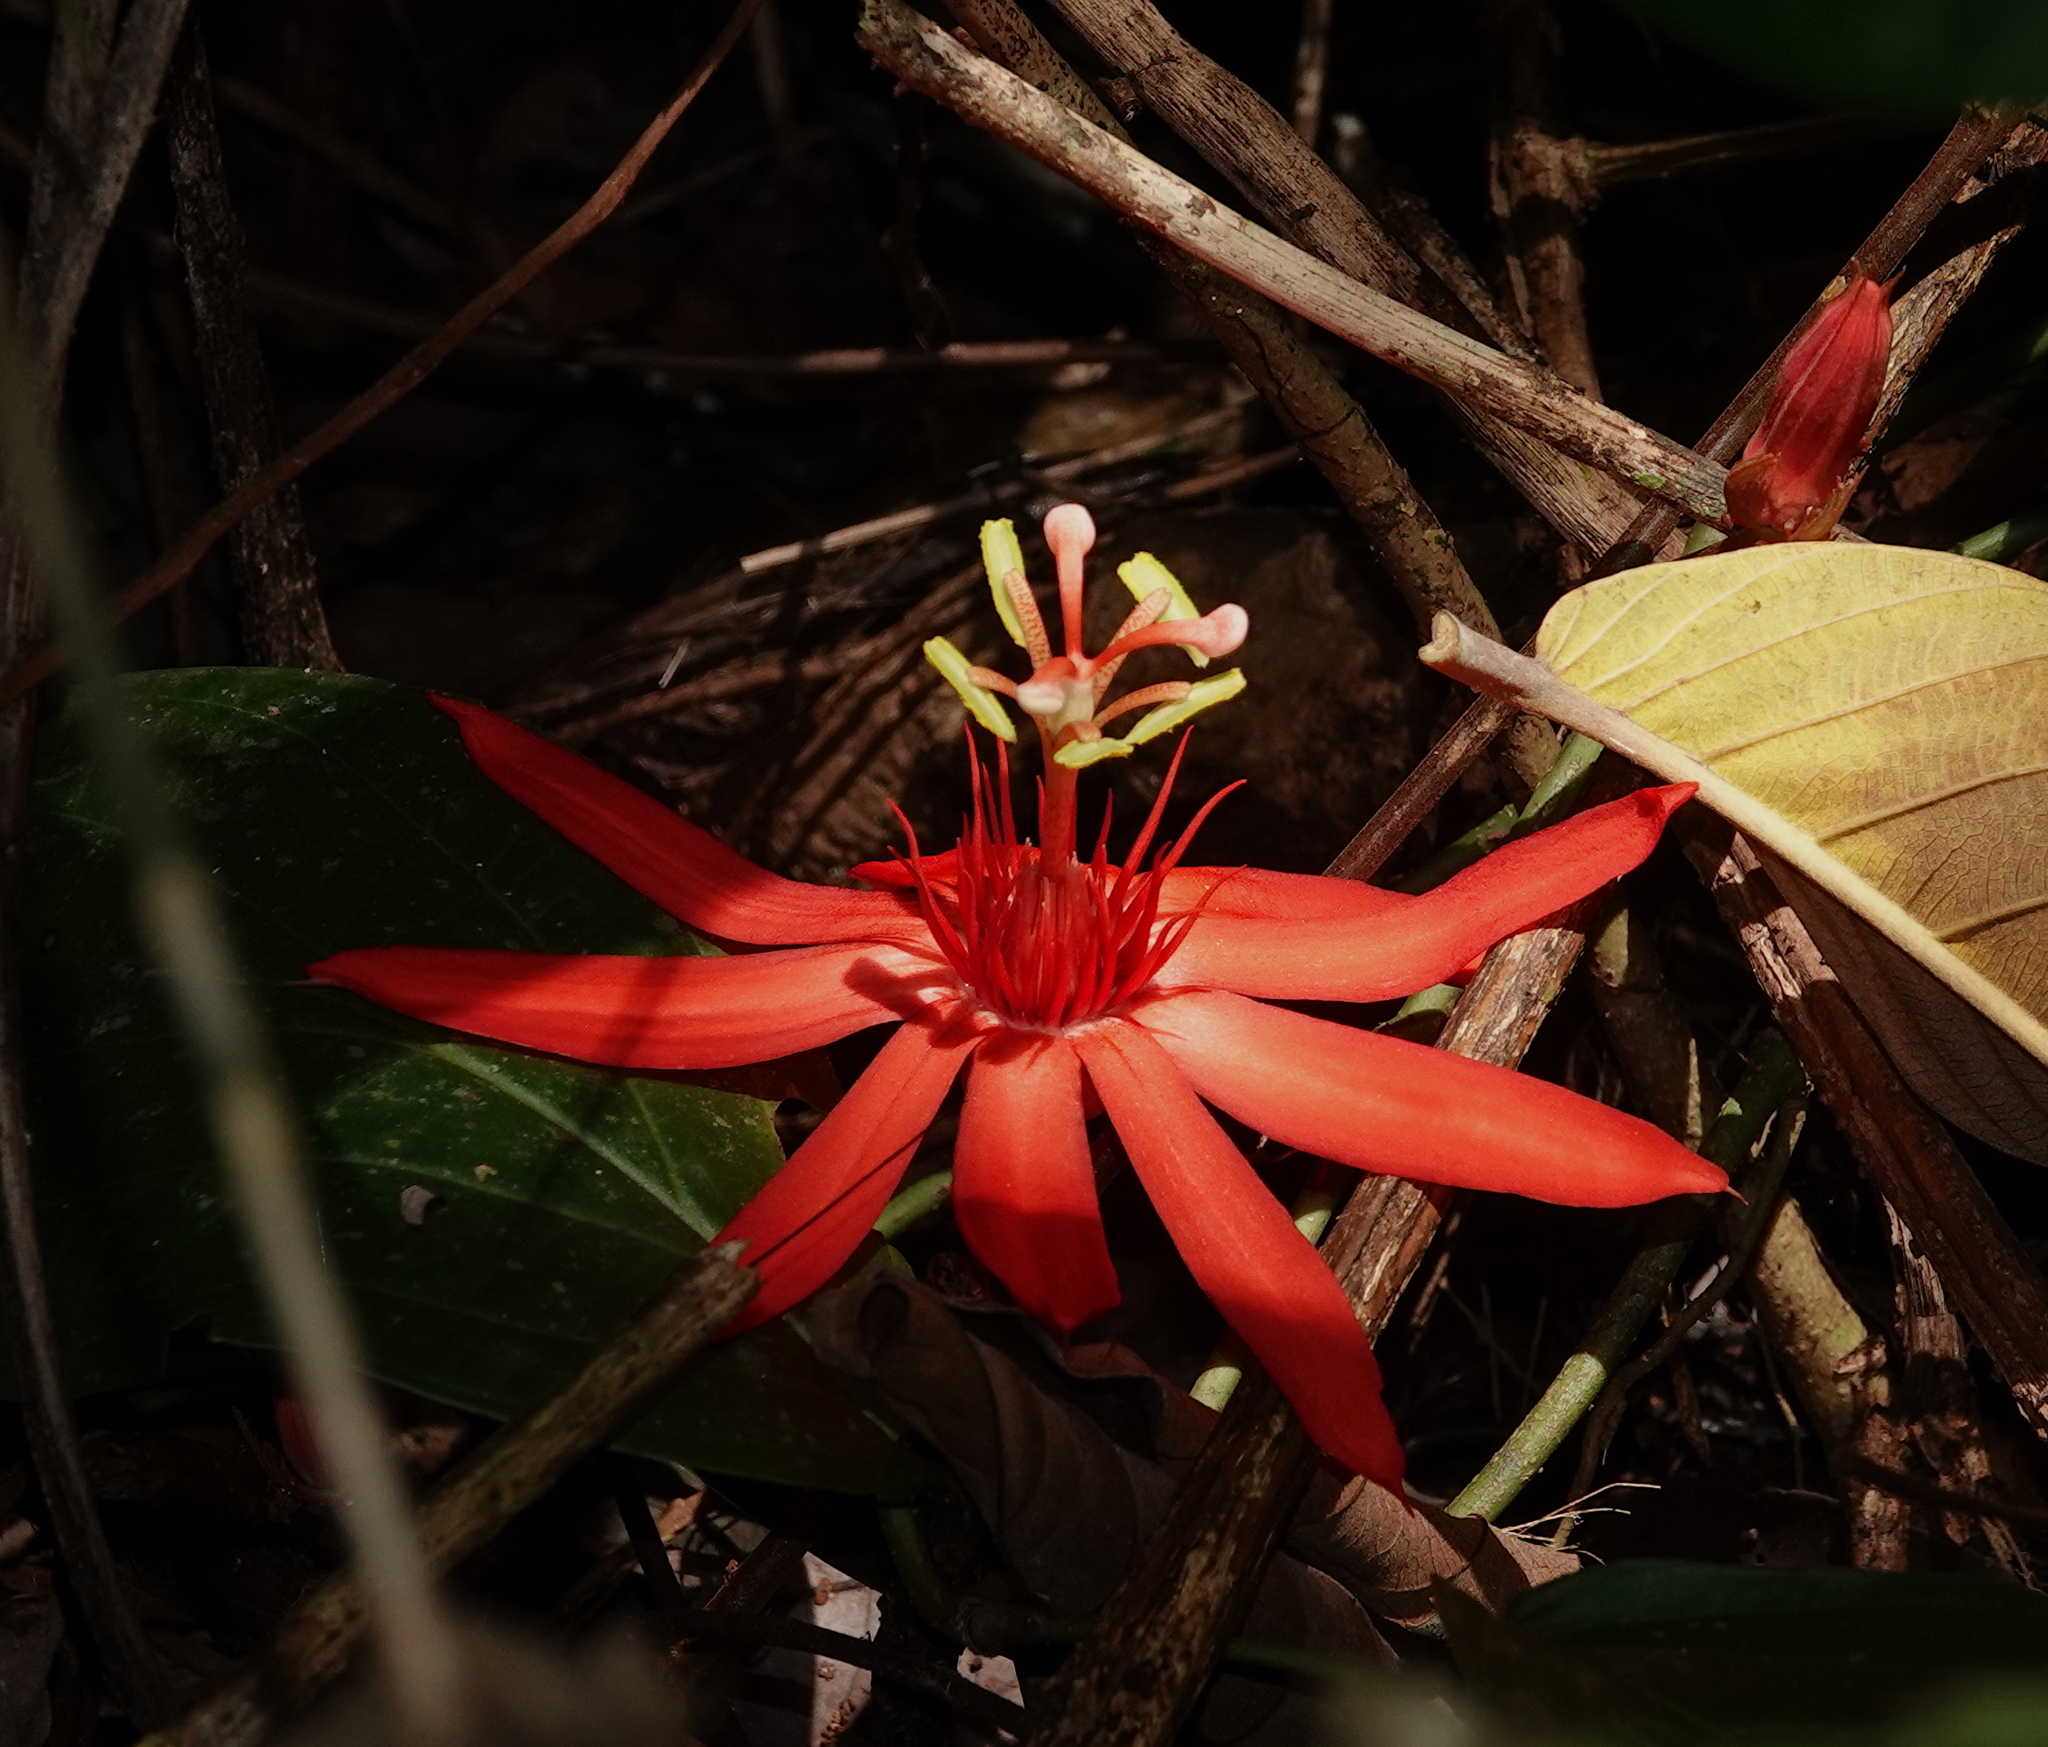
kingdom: Plantae
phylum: Tracheophyta
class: Magnoliopsida
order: Malpighiales
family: Passifloraceae
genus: Passiflora
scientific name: Passiflora vitifolia
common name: Perfumed passionflower
